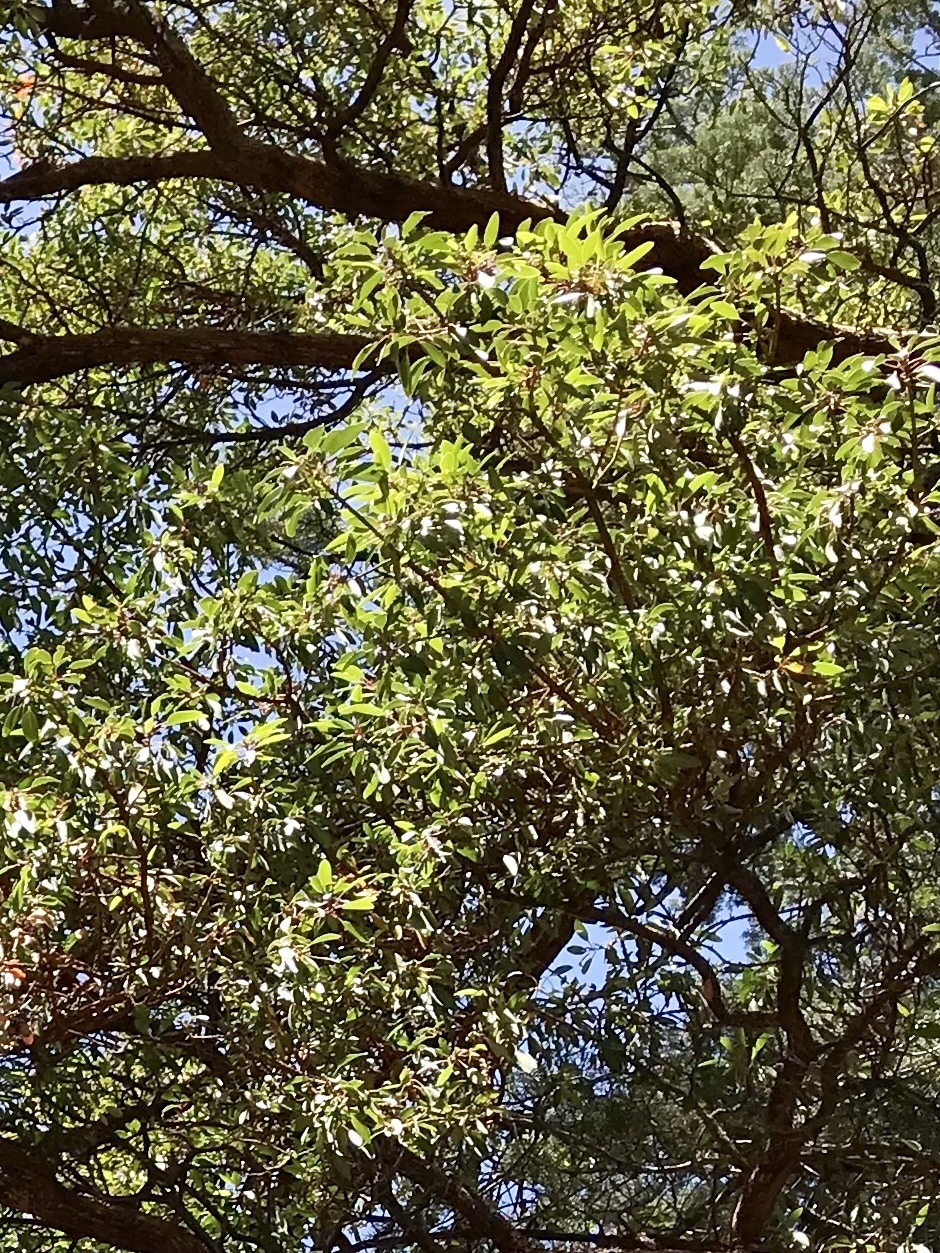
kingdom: Plantae
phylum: Tracheophyta
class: Magnoliopsida
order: Ericales
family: Ericaceae
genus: Arbutus
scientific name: Arbutus arizonica
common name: Arizona madrone
